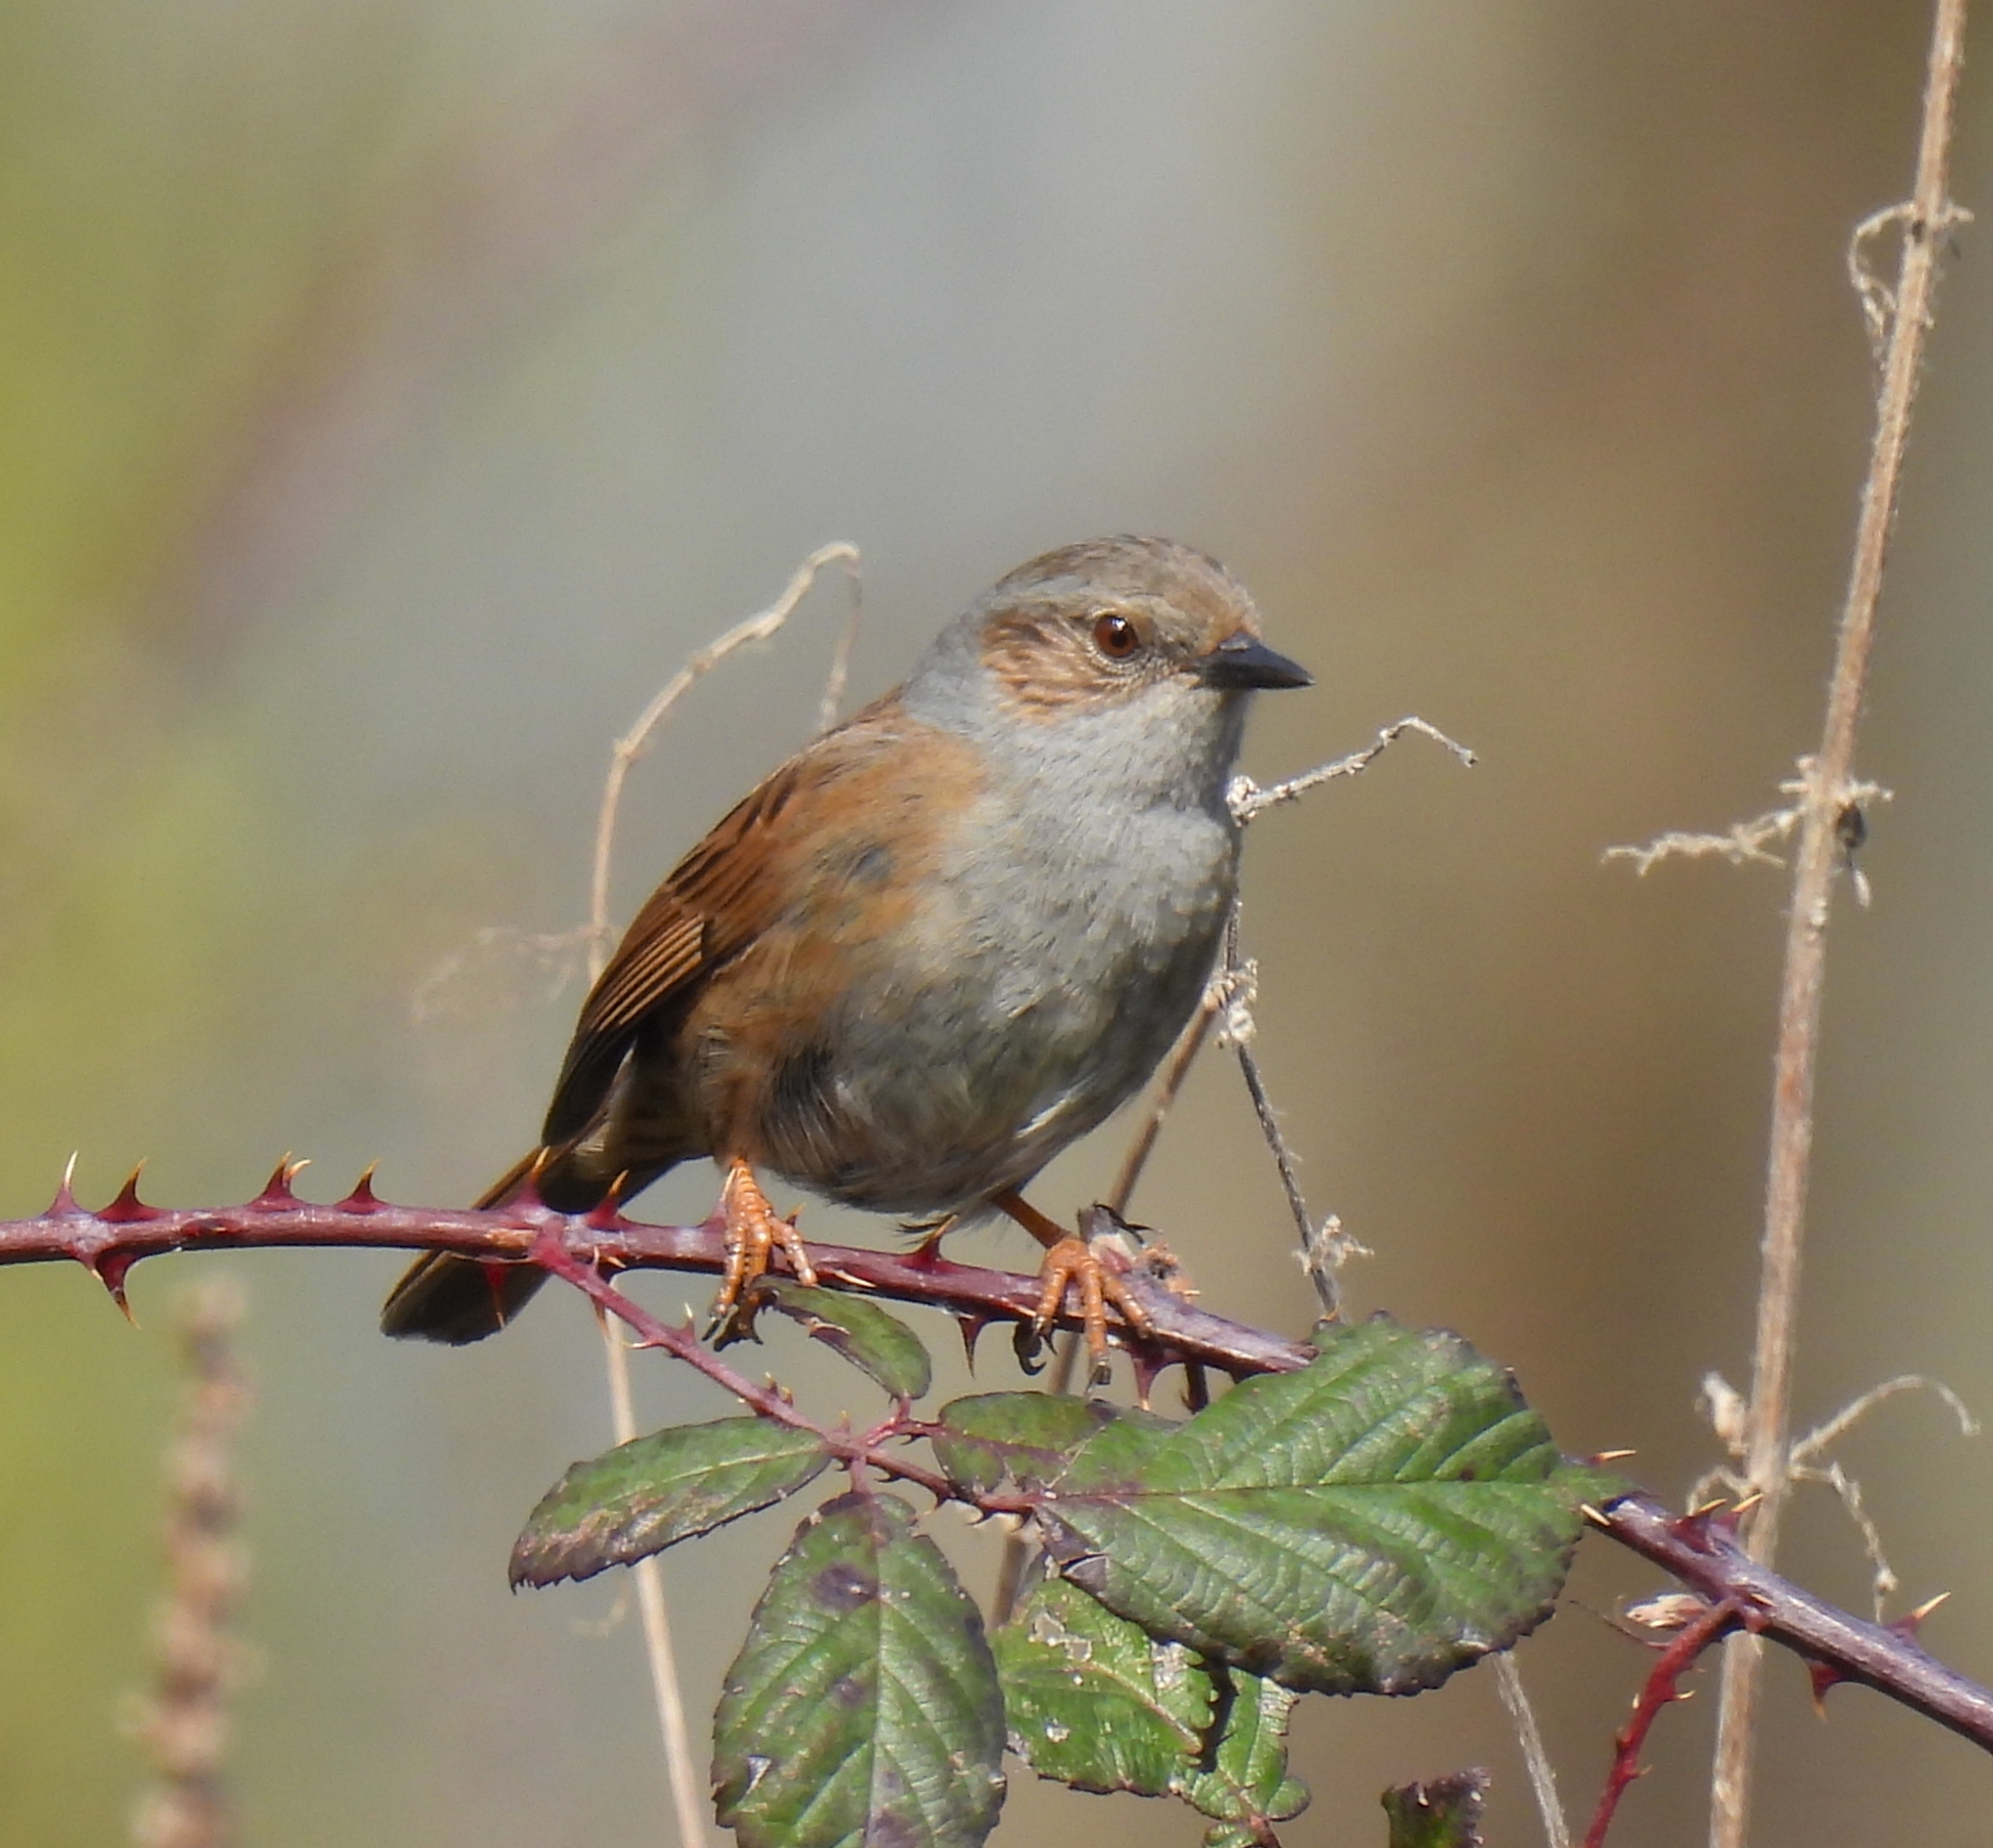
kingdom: Animalia
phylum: Chordata
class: Aves
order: Passeriformes
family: Prunellidae
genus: Prunella
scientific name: Prunella modularis
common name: Dunnock
